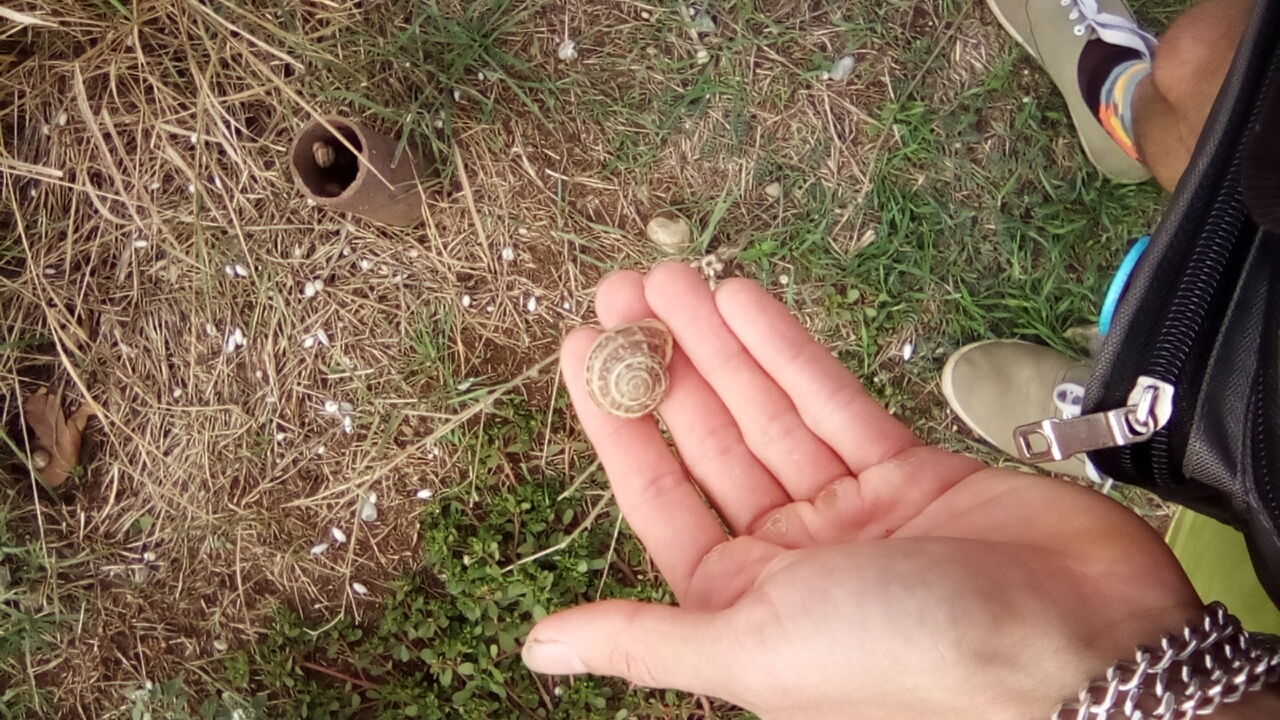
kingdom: Animalia
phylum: Mollusca
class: Gastropoda
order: Stylommatophora
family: Helicidae
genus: Eobania
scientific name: Eobania vermiculata
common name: Chocolateband snail
